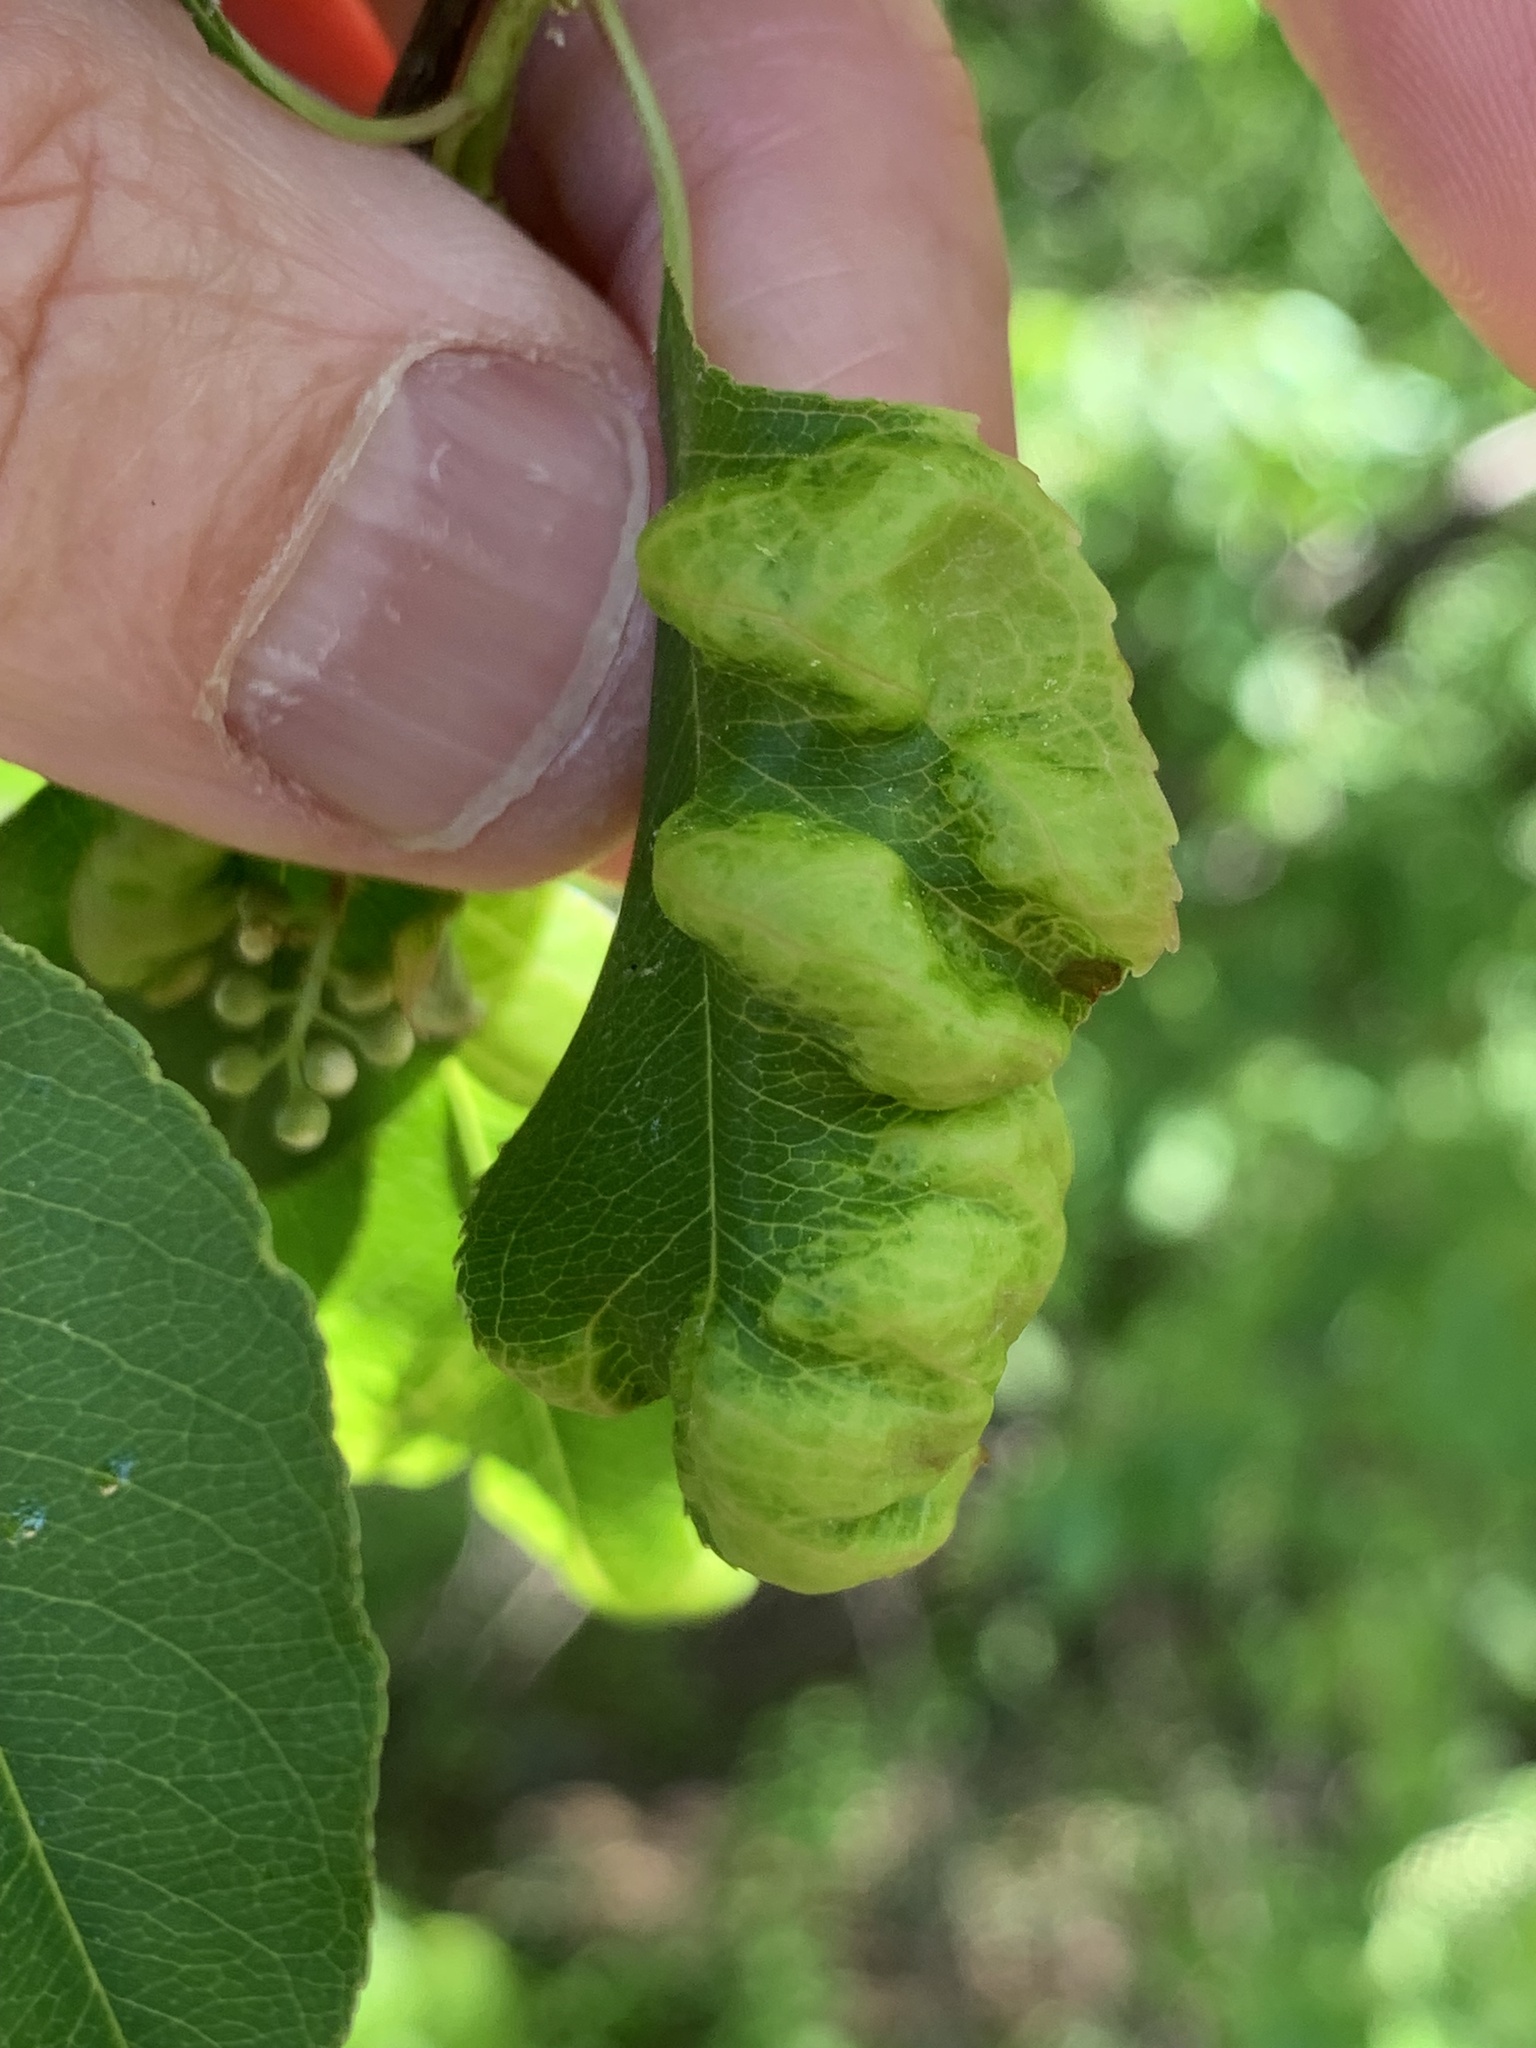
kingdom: Fungi
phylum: Ascomycota
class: Taphrinomycetes
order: Taphrinales
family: Taphrinaceae
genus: Taphrina
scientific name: Taphrina farlowii
